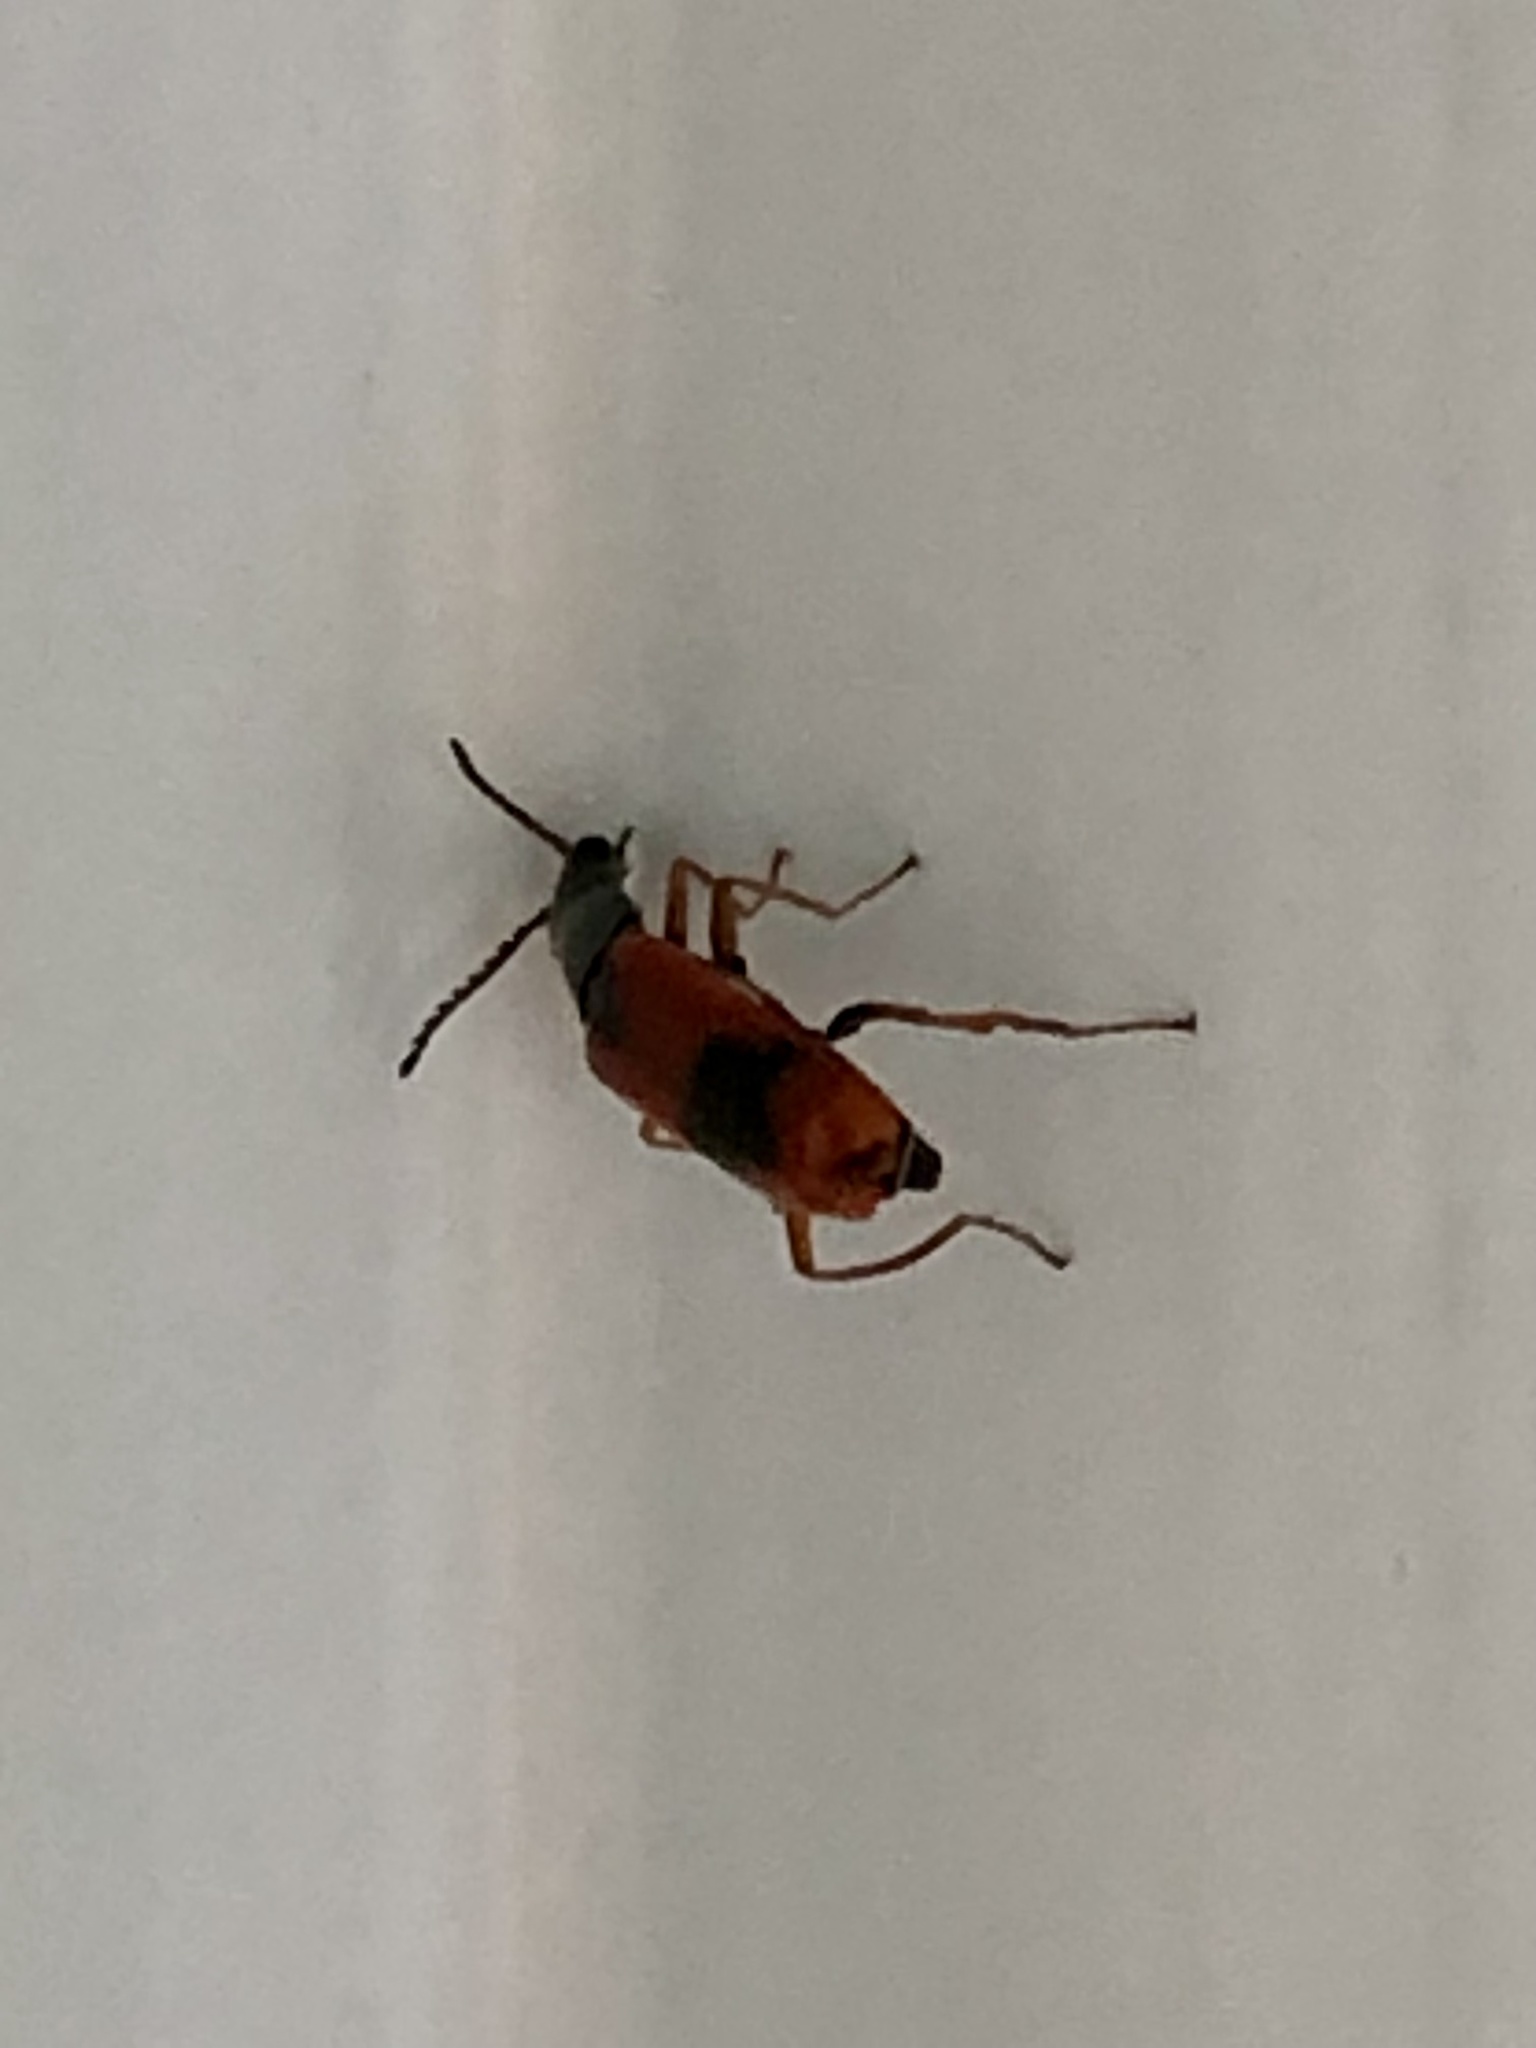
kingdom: Animalia
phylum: Arthropoda
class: Insecta
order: Coleoptera
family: Melyridae
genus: Anthocomus
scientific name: Anthocomus equestris
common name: Black-banded soft-winged flower beetle
